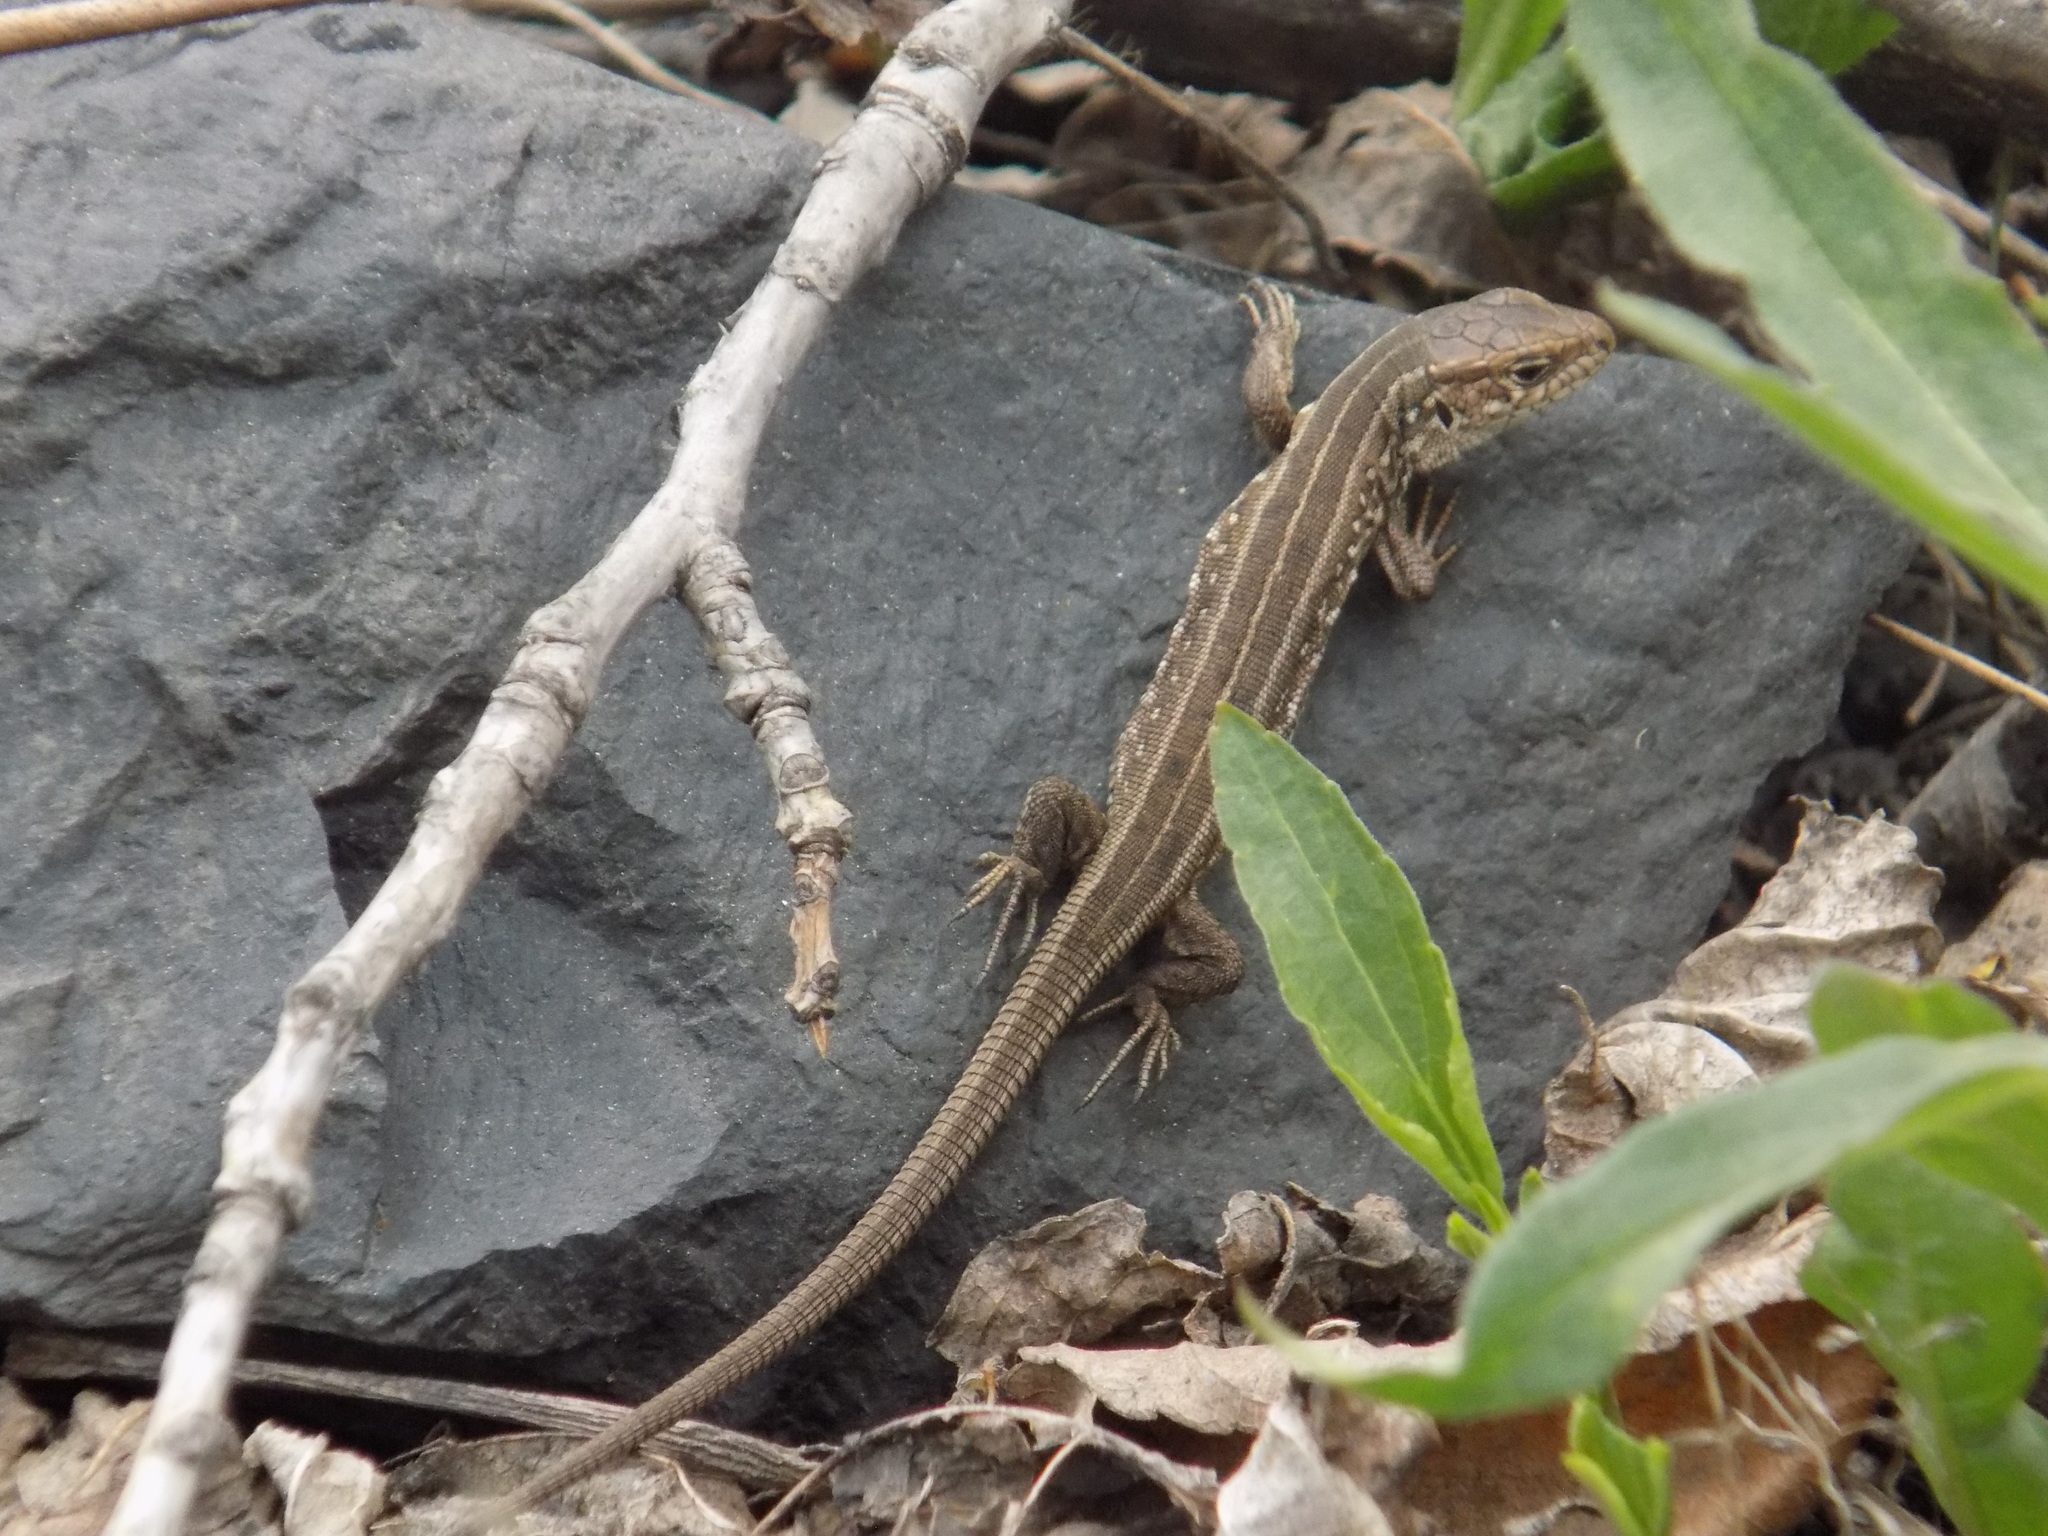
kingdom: Animalia
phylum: Chordata
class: Squamata
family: Lacertidae
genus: Lacerta
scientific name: Lacerta agilis
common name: Sand lizard
